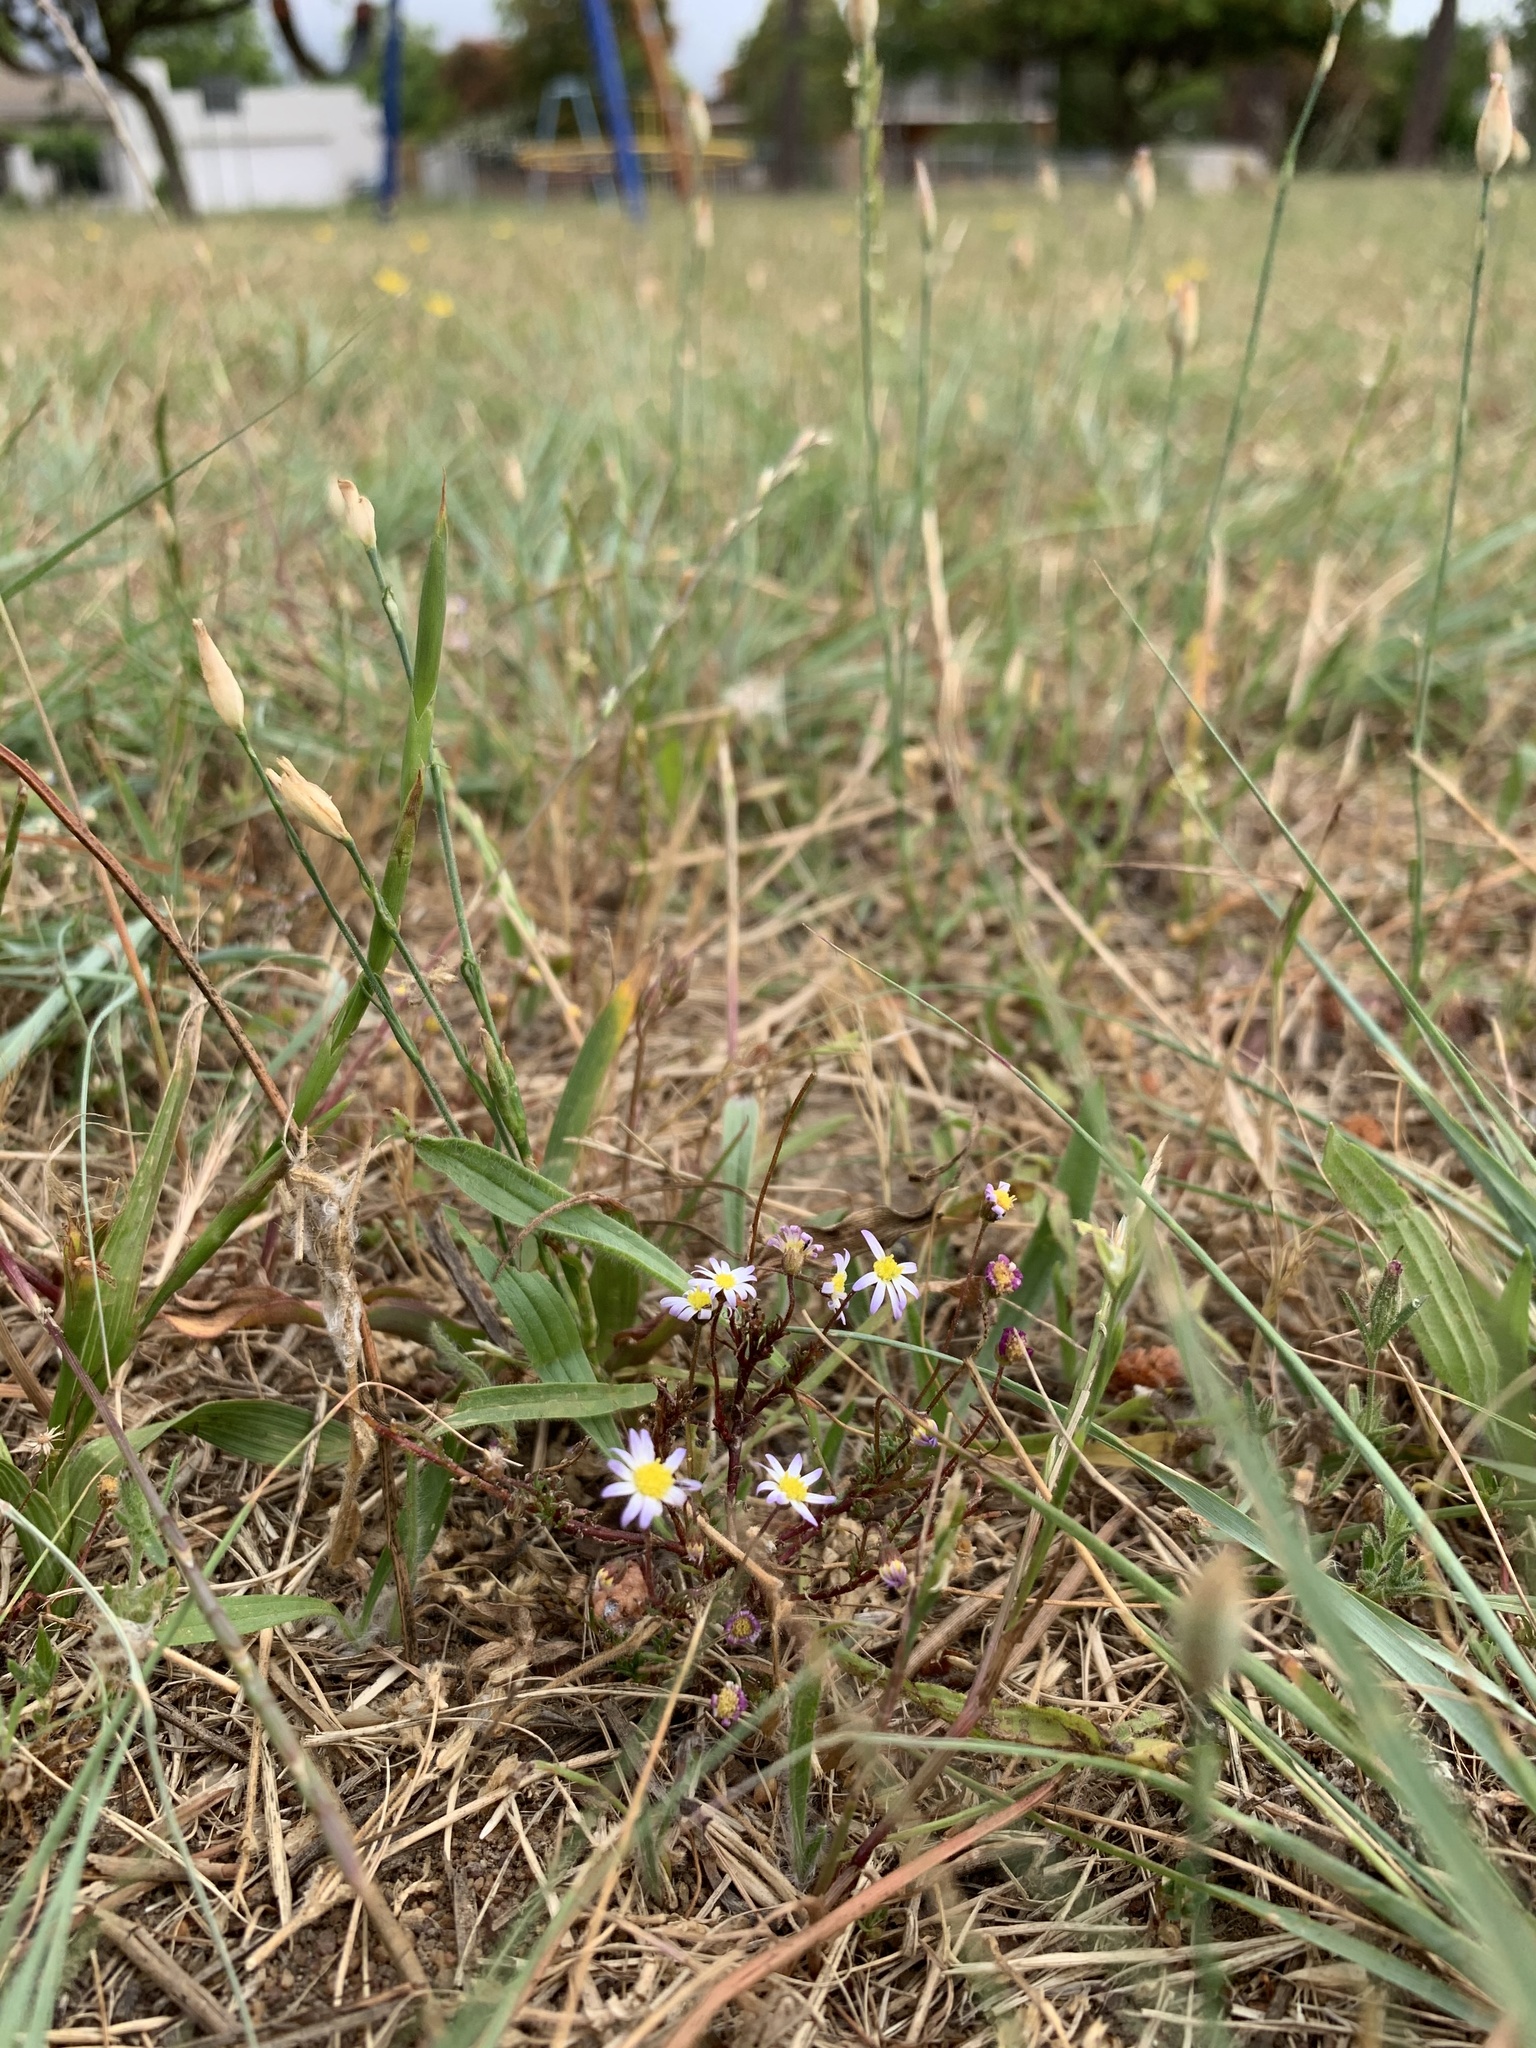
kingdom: Plantae
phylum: Tracheophyta
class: Magnoliopsida
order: Asterales
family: Asteraceae
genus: Felicia
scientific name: Felicia tenella
